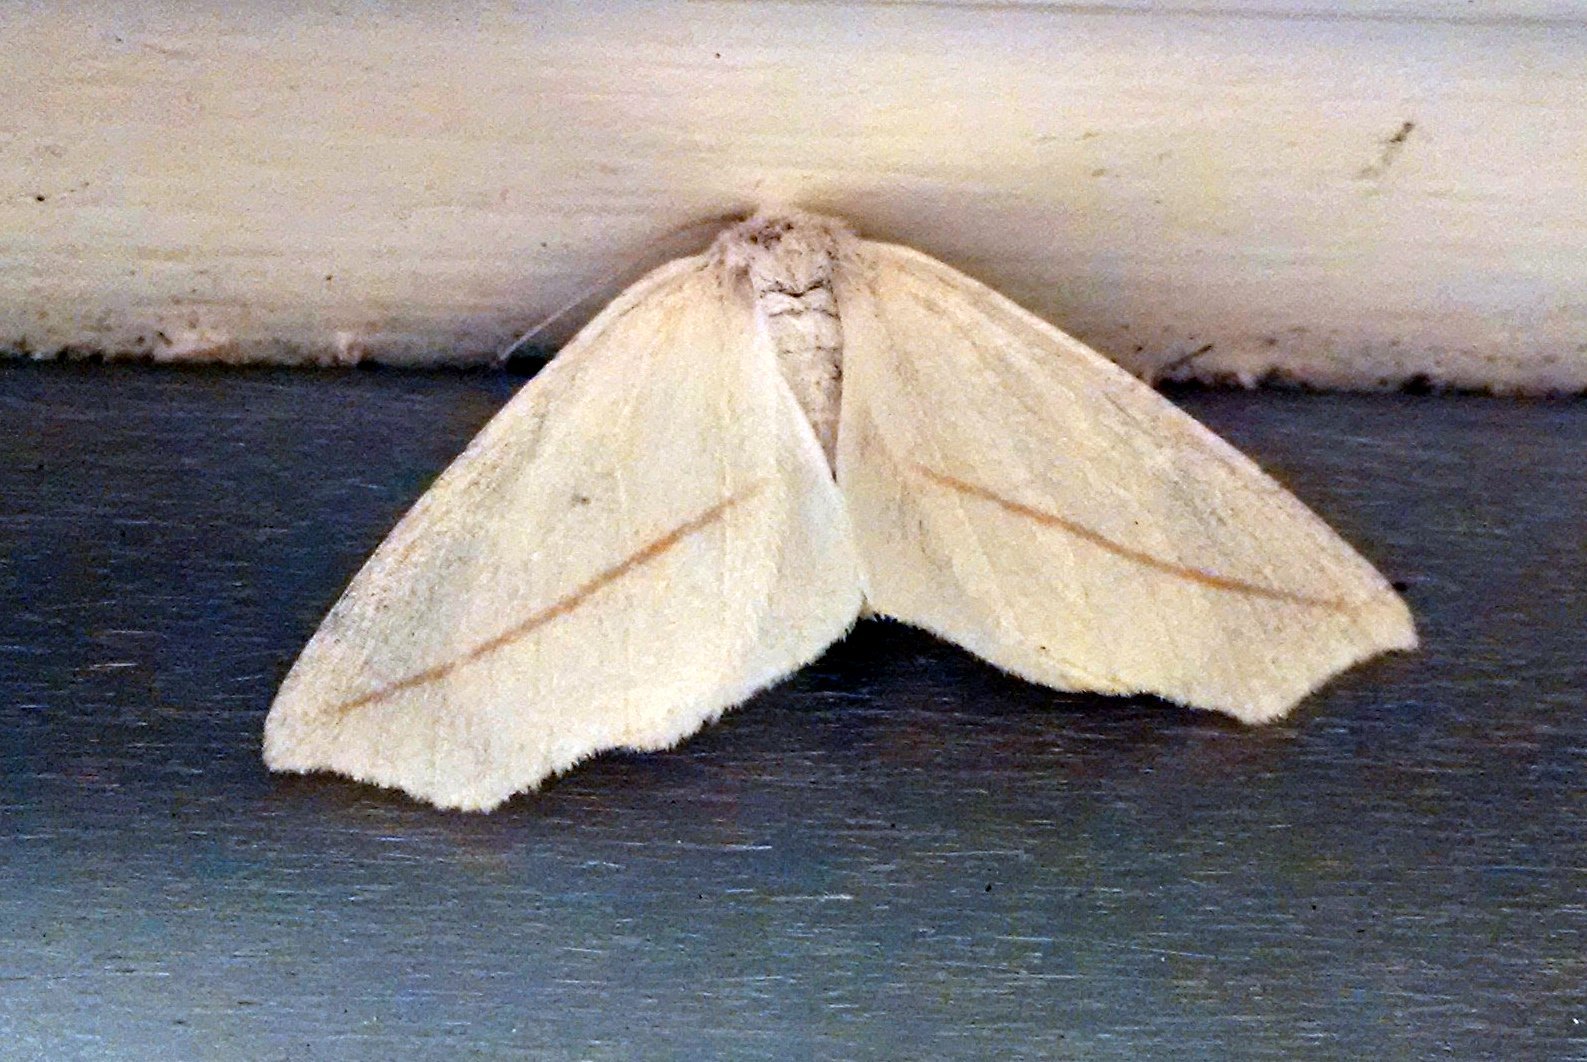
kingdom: Animalia
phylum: Arthropoda
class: Insecta
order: Lepidoptera
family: Geometridae
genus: Tetracis
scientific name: Tetracis cachexiata
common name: White slant-line
